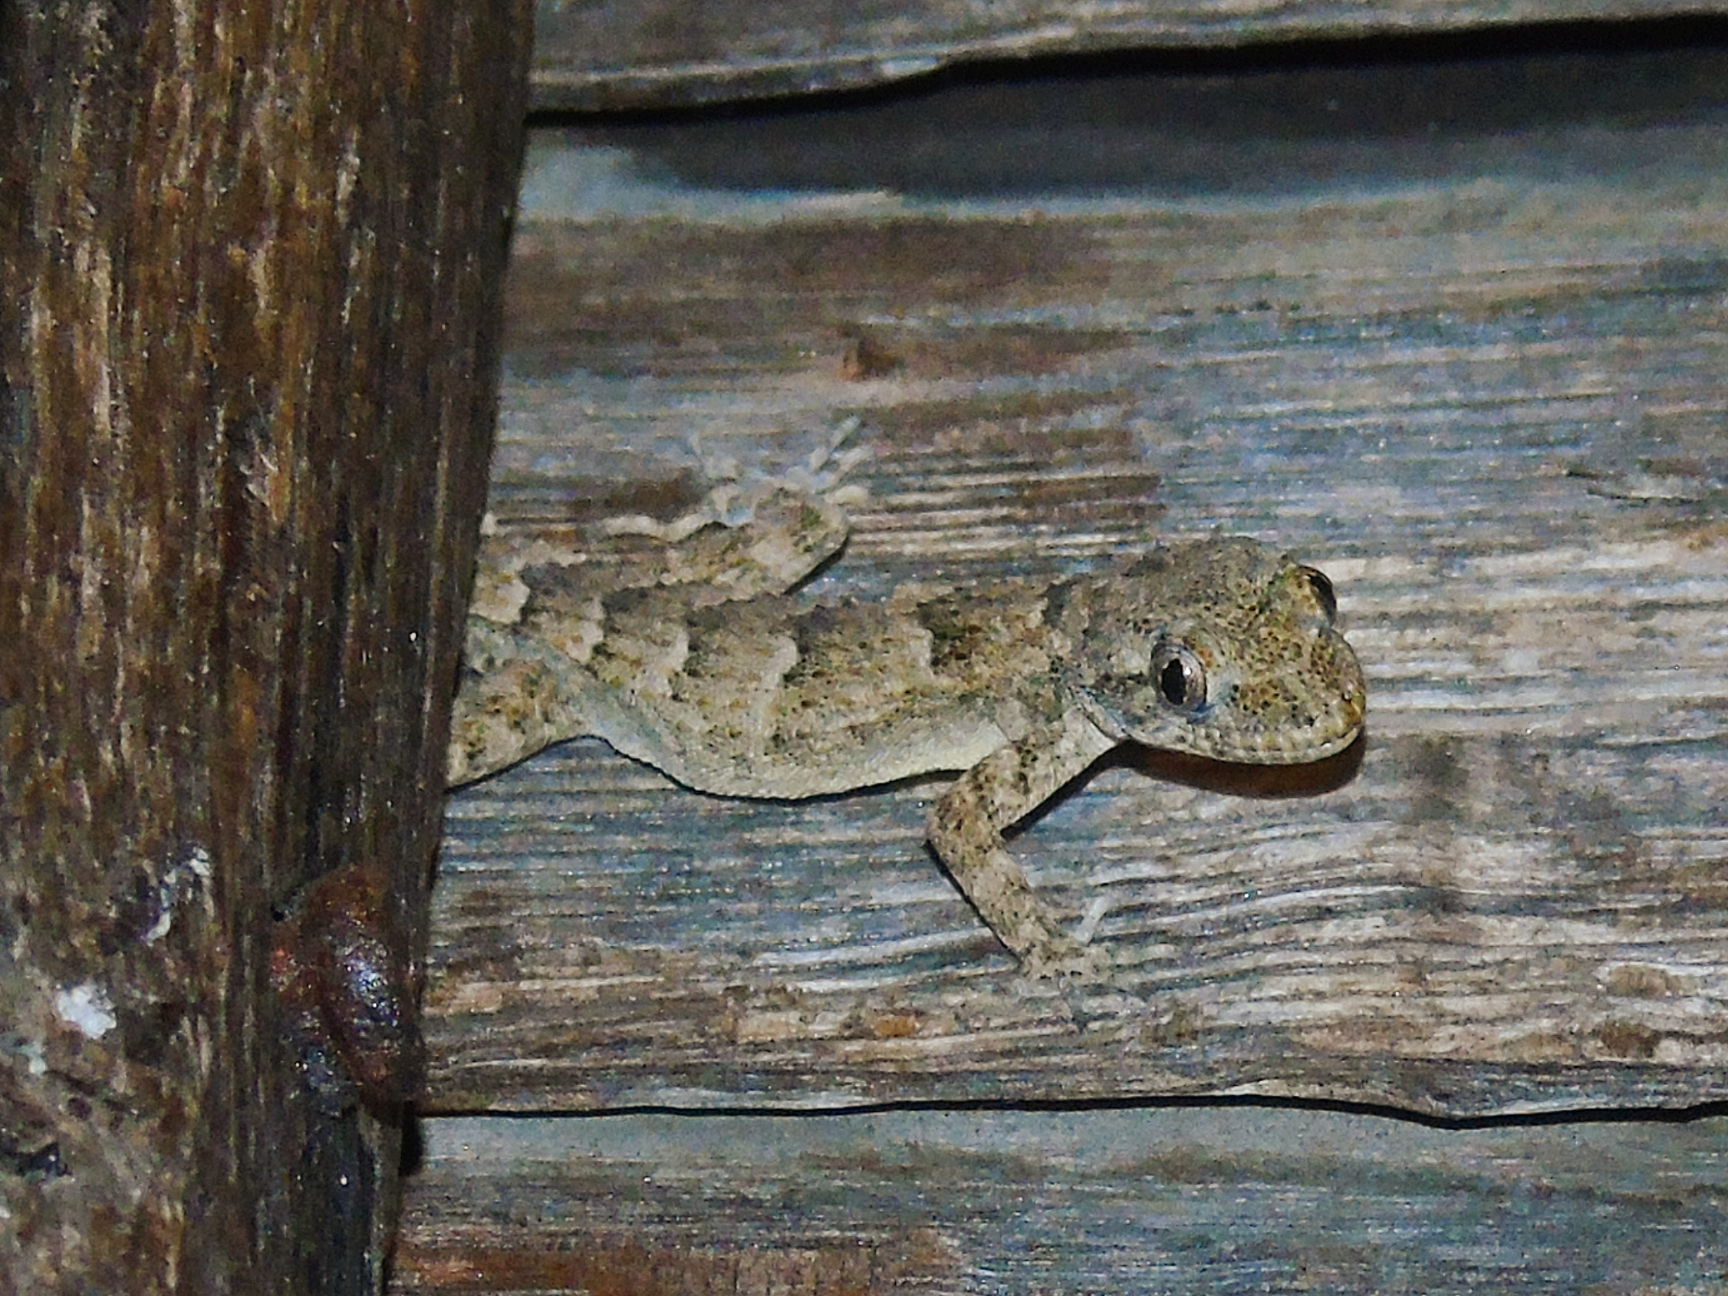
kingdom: Animalia
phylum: Chordata
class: Squamata
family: Gekkonidae
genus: Mediodactylus
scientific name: Mediodactylus danilewskii
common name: Bulgarian bent-toed gecko
